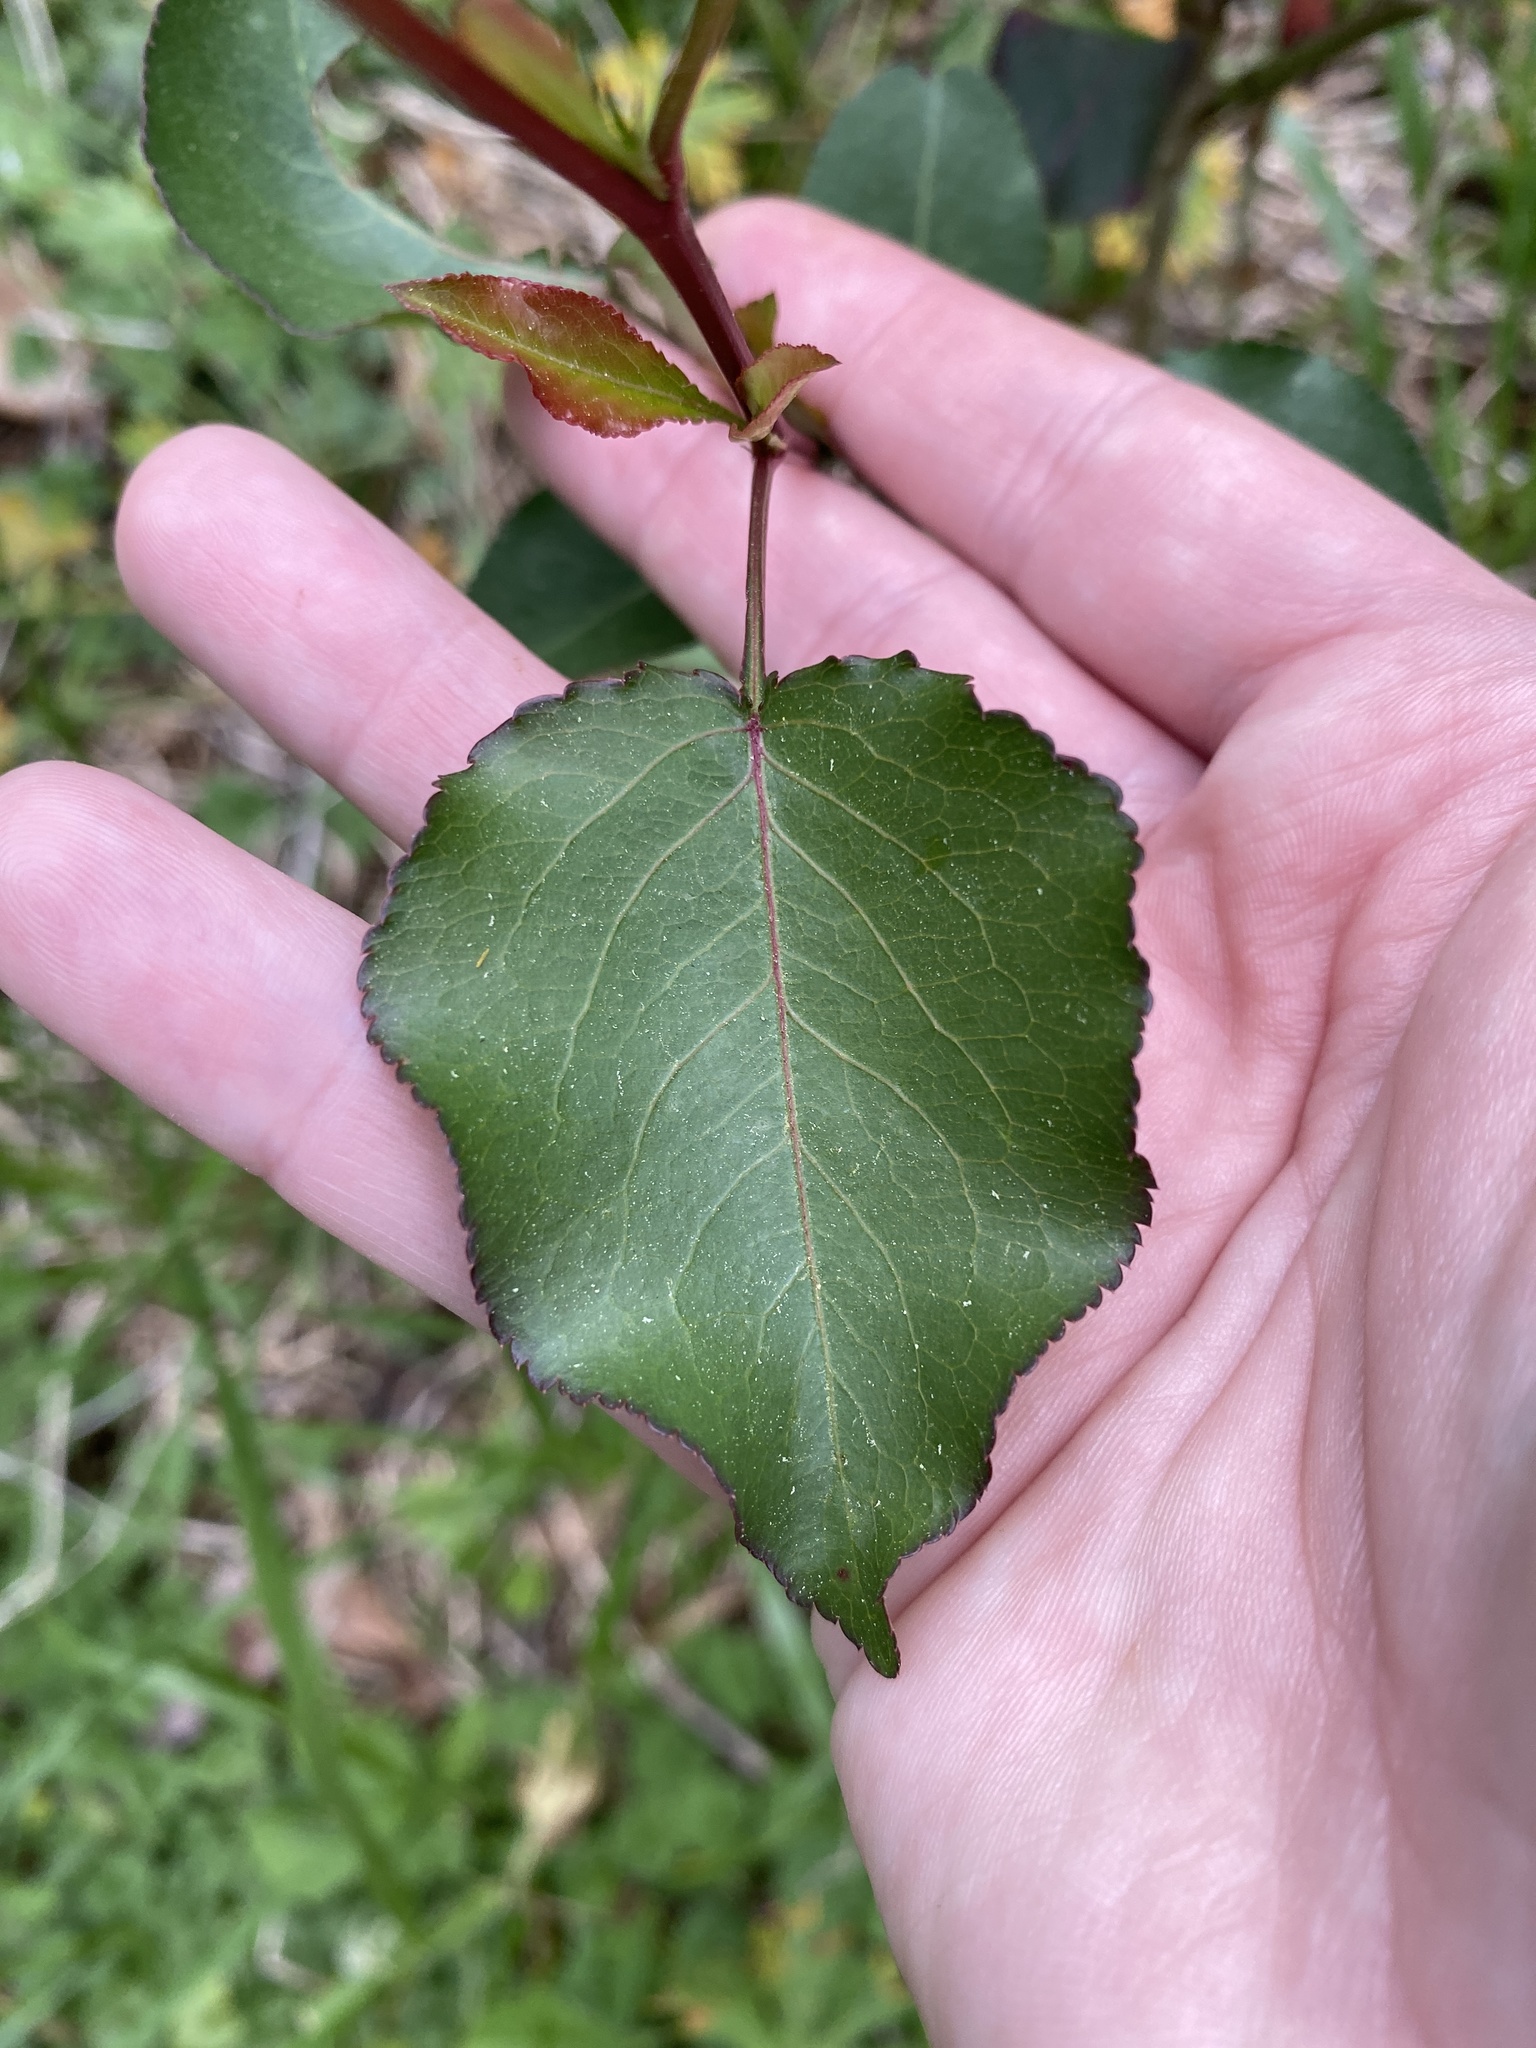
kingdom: Plantae
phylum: Tracheophyta
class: Magnoliopsida
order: Rosales
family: Rosaceae
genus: Pyrus
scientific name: Pyrus calleryana
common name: Callery pear
